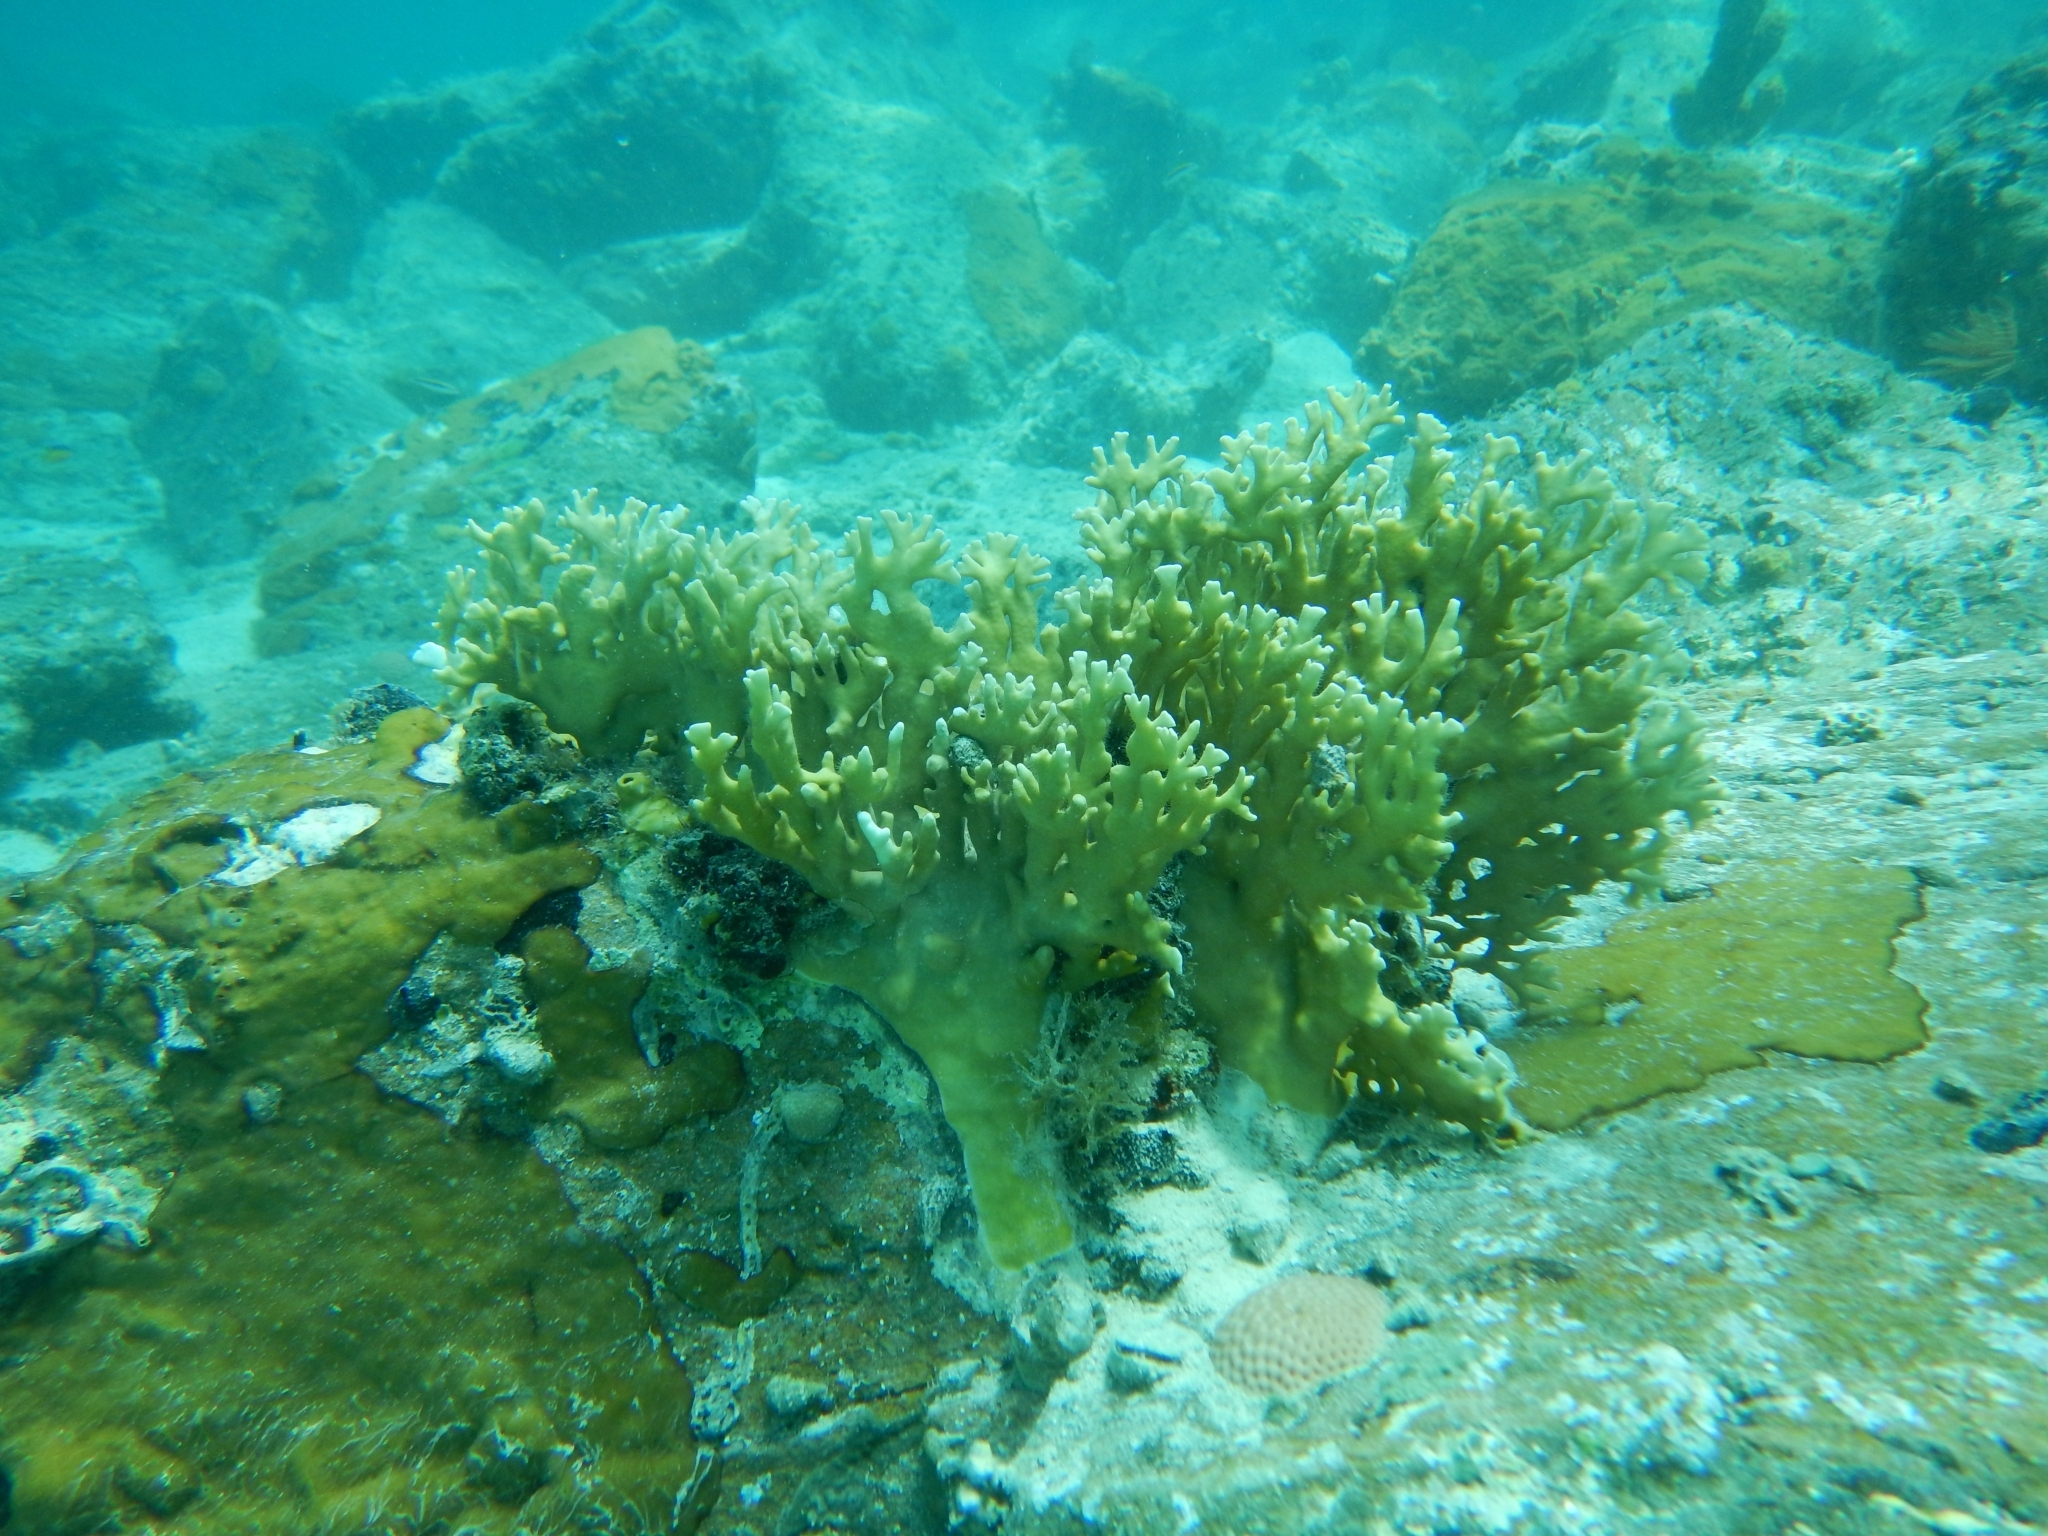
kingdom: Animalia
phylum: Cnidaria
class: Hydrozoa
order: Anthoathecata
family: Milleporidae
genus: Millepora
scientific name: Millepora alcicornis
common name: Branching fire coral
